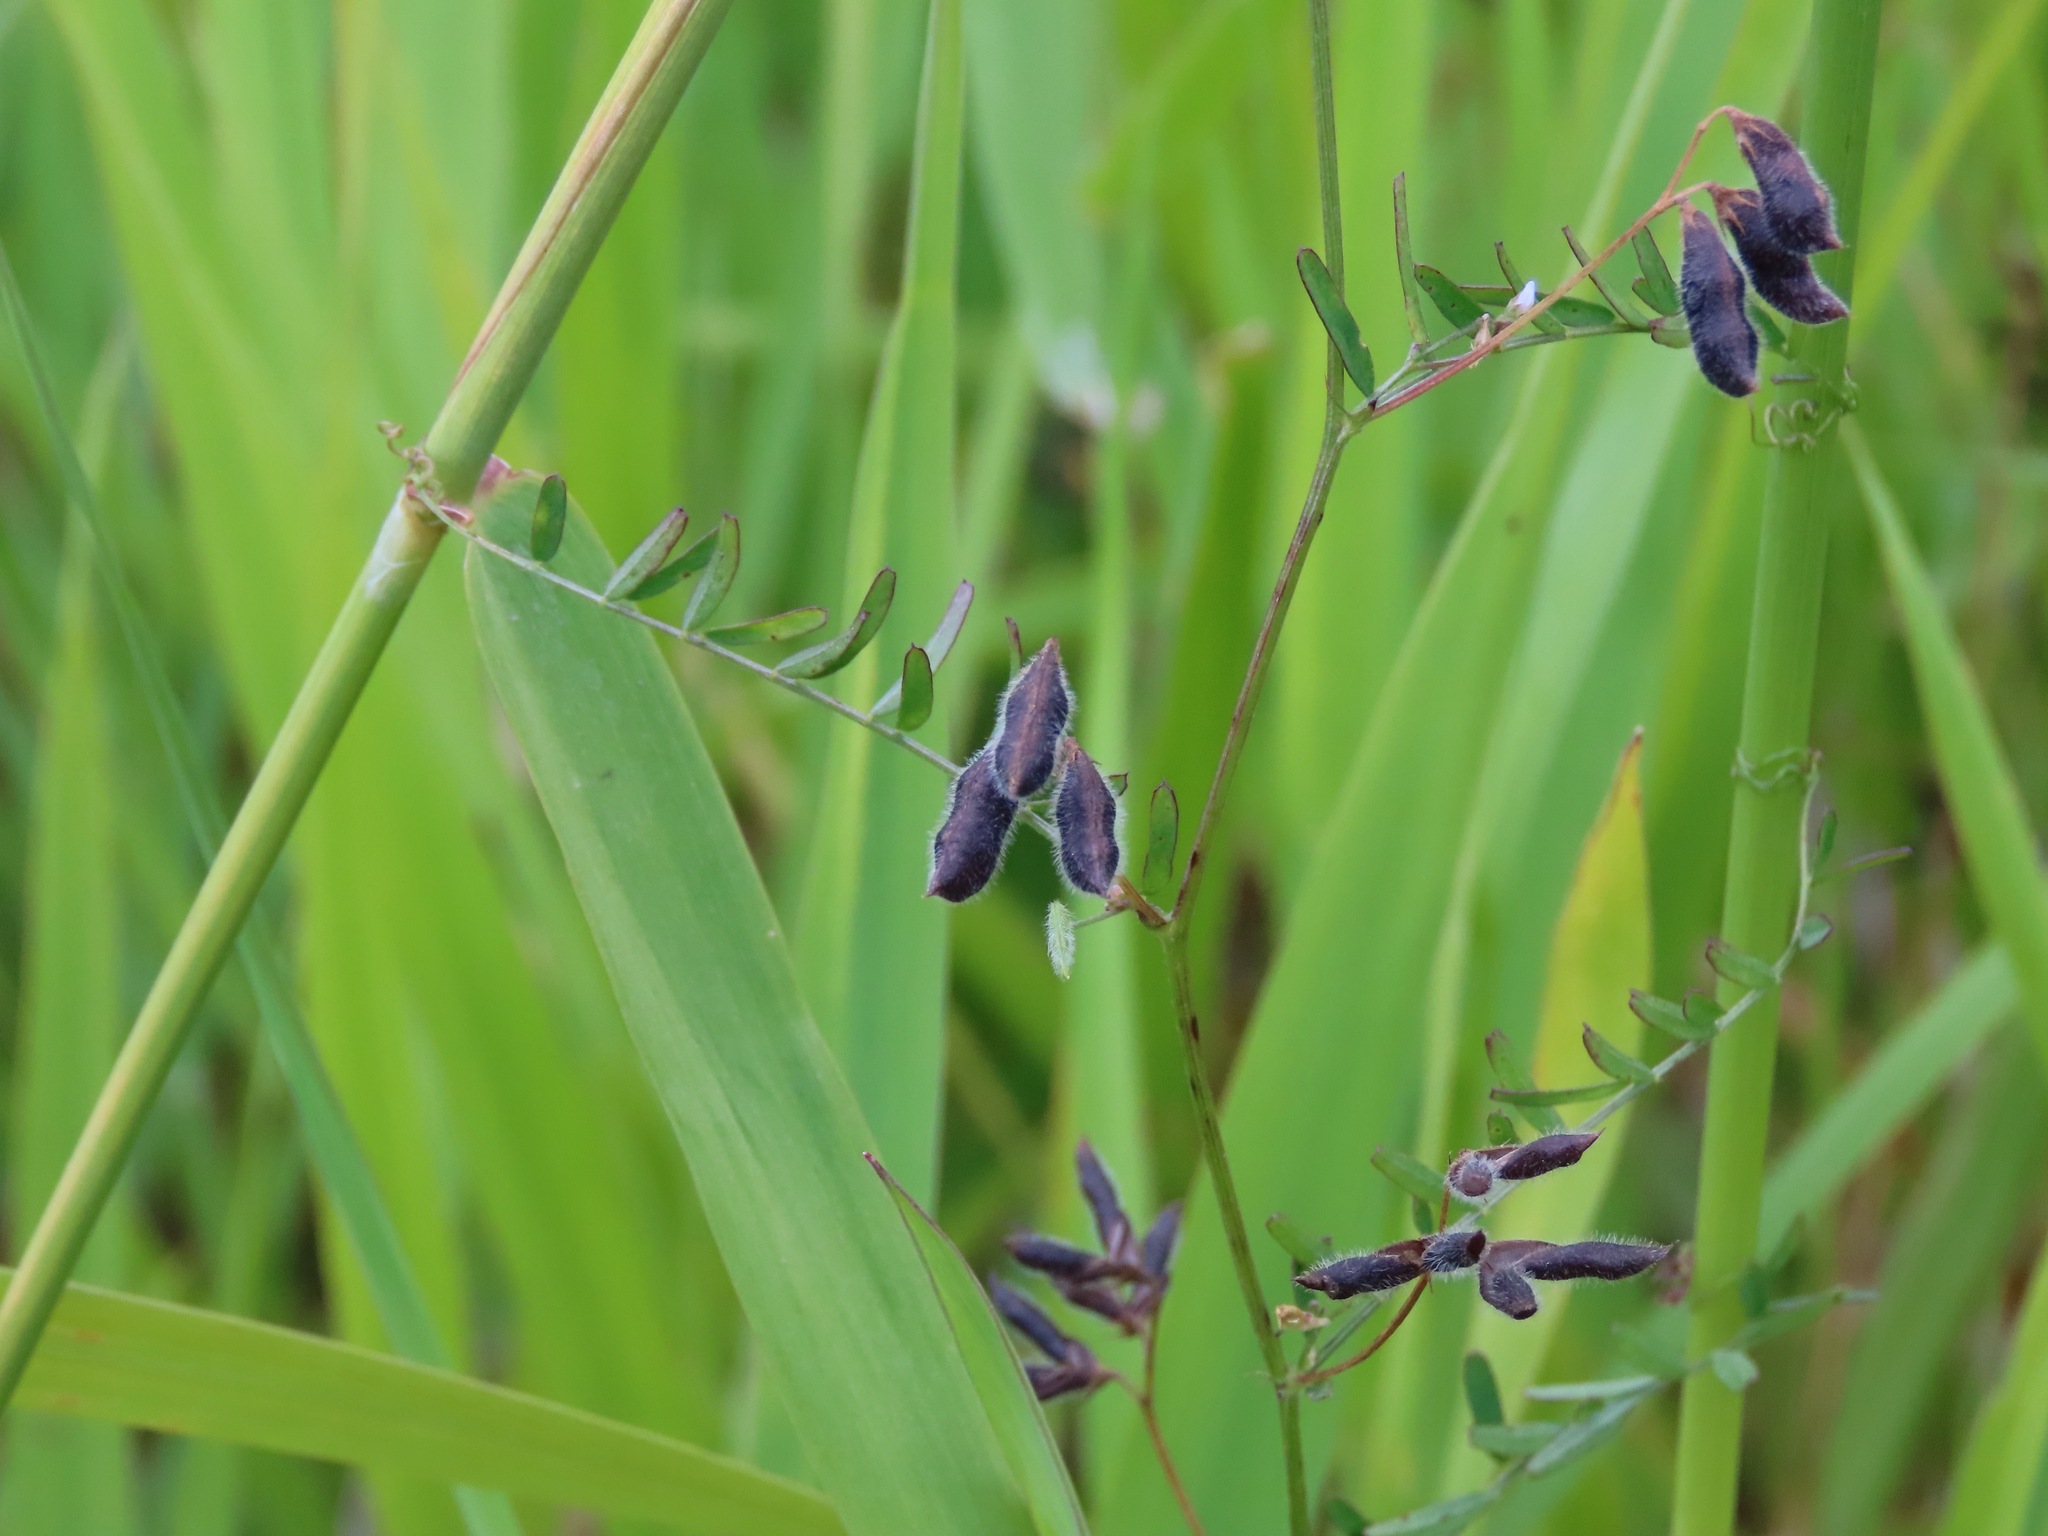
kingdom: Plantae
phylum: Tracheophyta
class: Magnoliopsida
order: Fabales
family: Fabaceae
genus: Vicia
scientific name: Vicia hirsuta
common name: Tiny vetch
